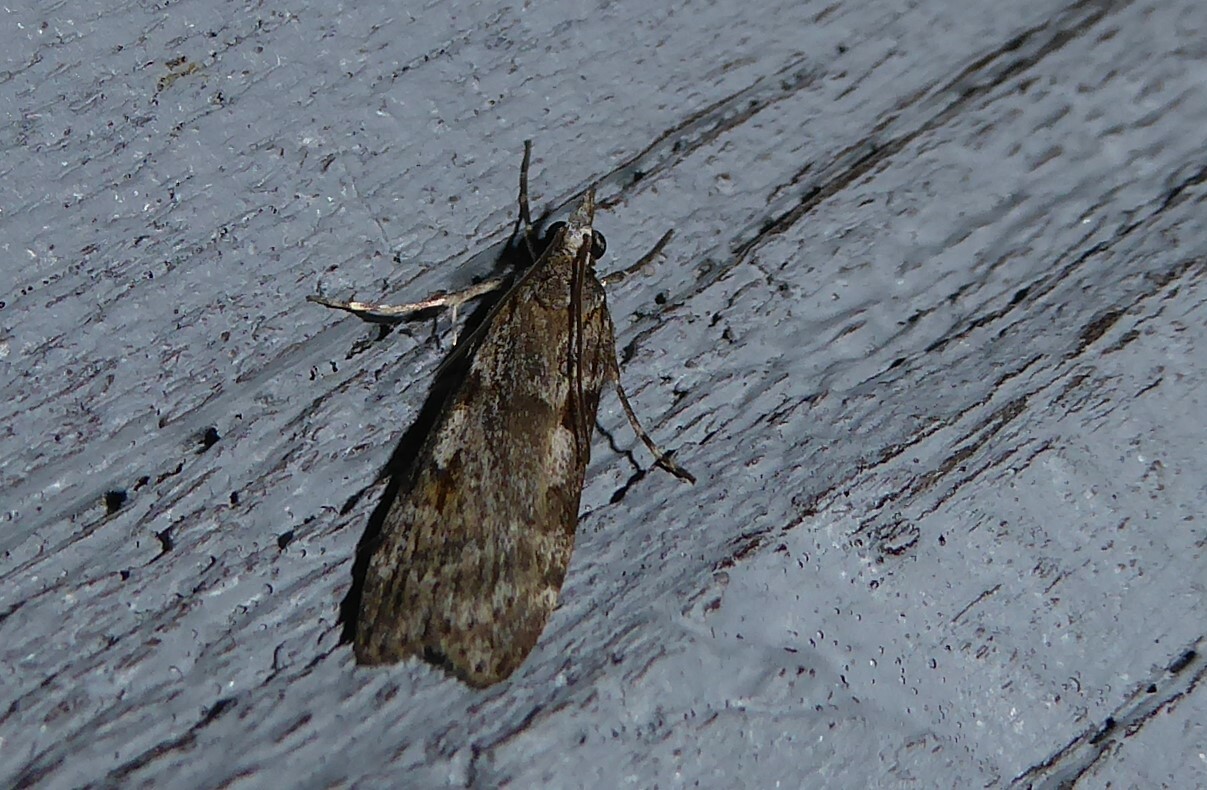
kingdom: Animalia
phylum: Arthropoda
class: Insecta
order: Lepidoptera
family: Crambidae
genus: Scoparia
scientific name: Scoparia halopis
